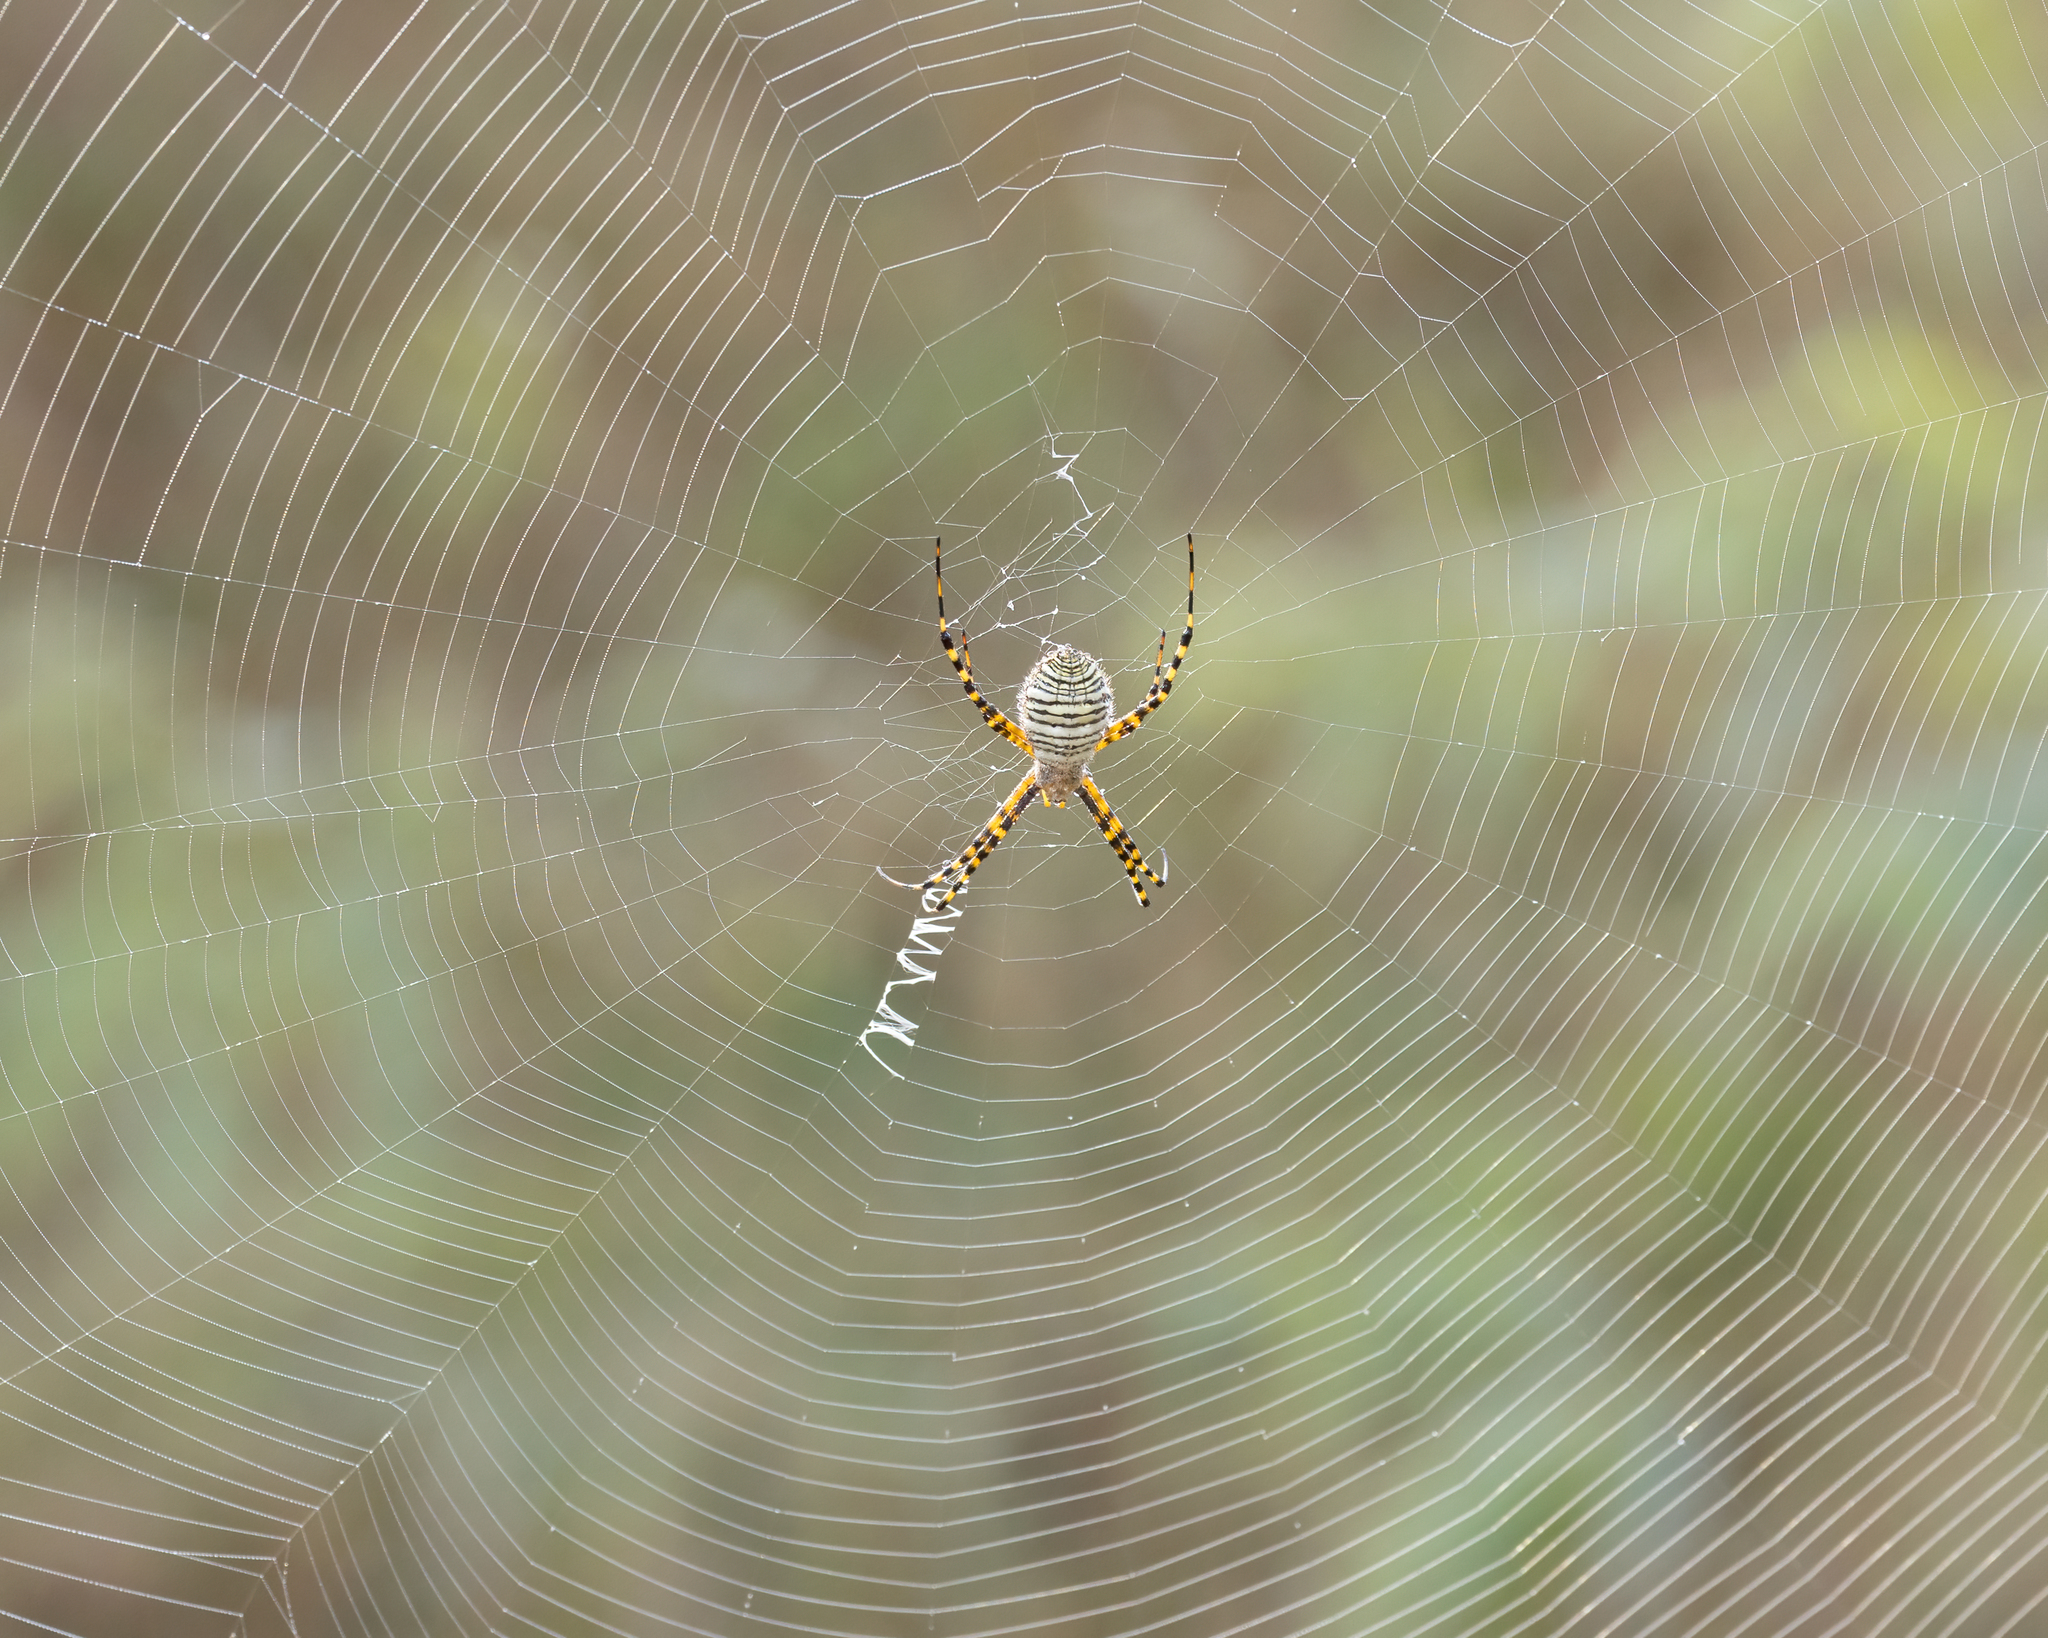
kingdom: Animalia
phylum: Arthropoda
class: Arachnida
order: Araneae
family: Araneidae
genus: Argiope
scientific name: Argiope trifasciata
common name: Banded garden spider
